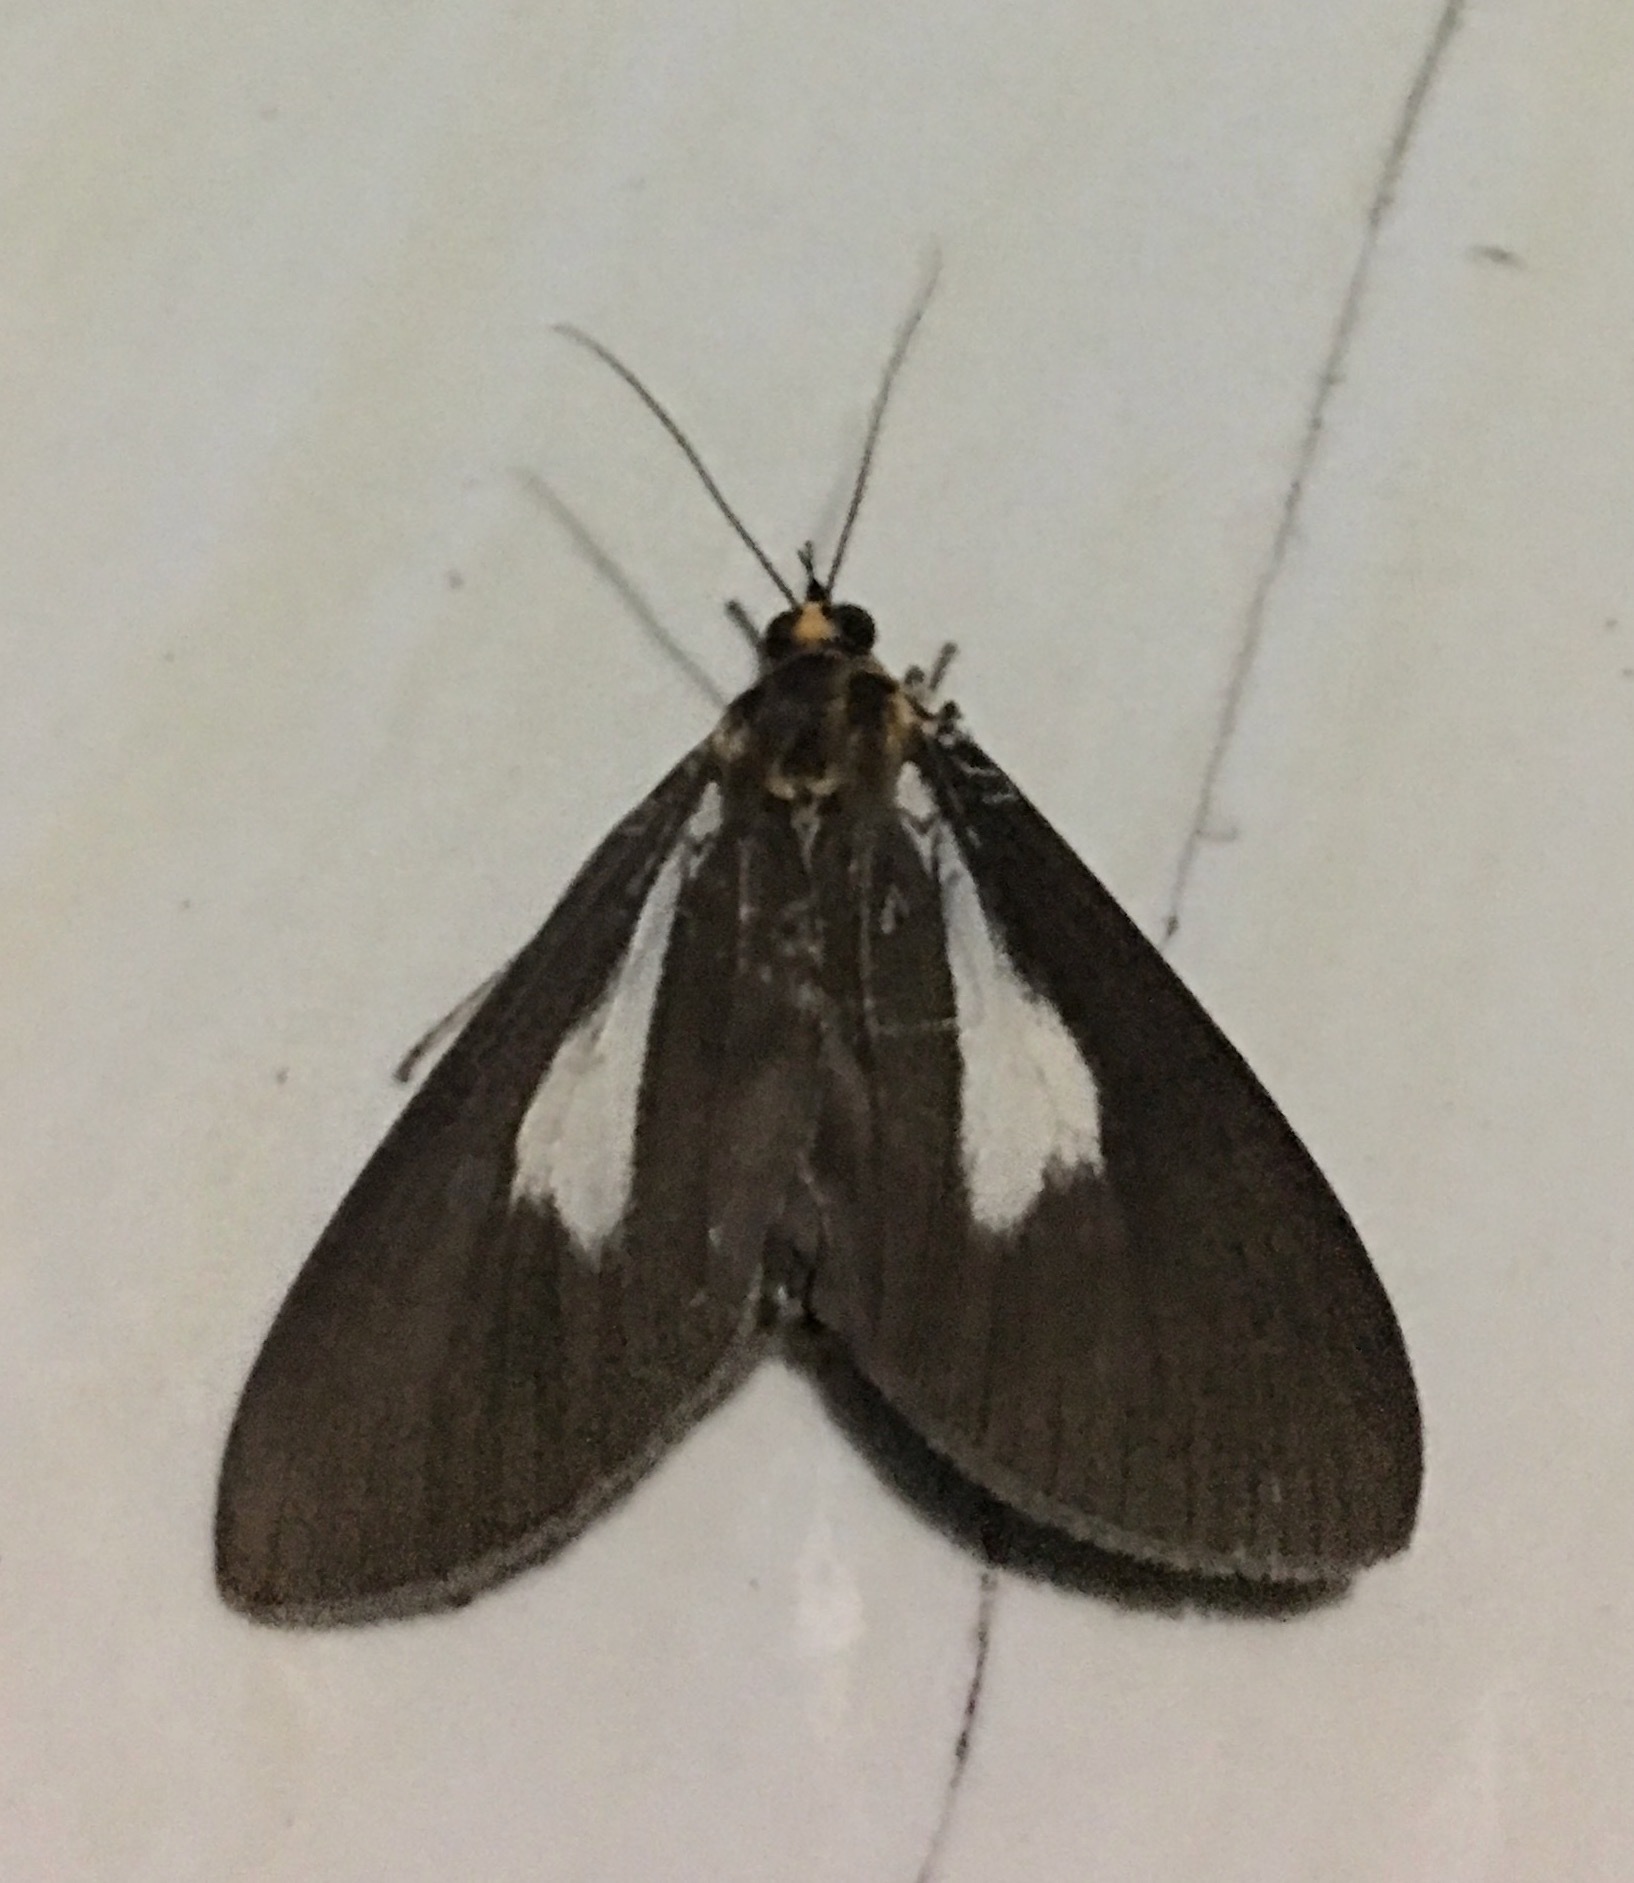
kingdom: Animalia
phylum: Arthropoda
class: Insecta
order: Lepidoptera
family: Erebidae
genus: Asota
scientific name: Asota heliconia
